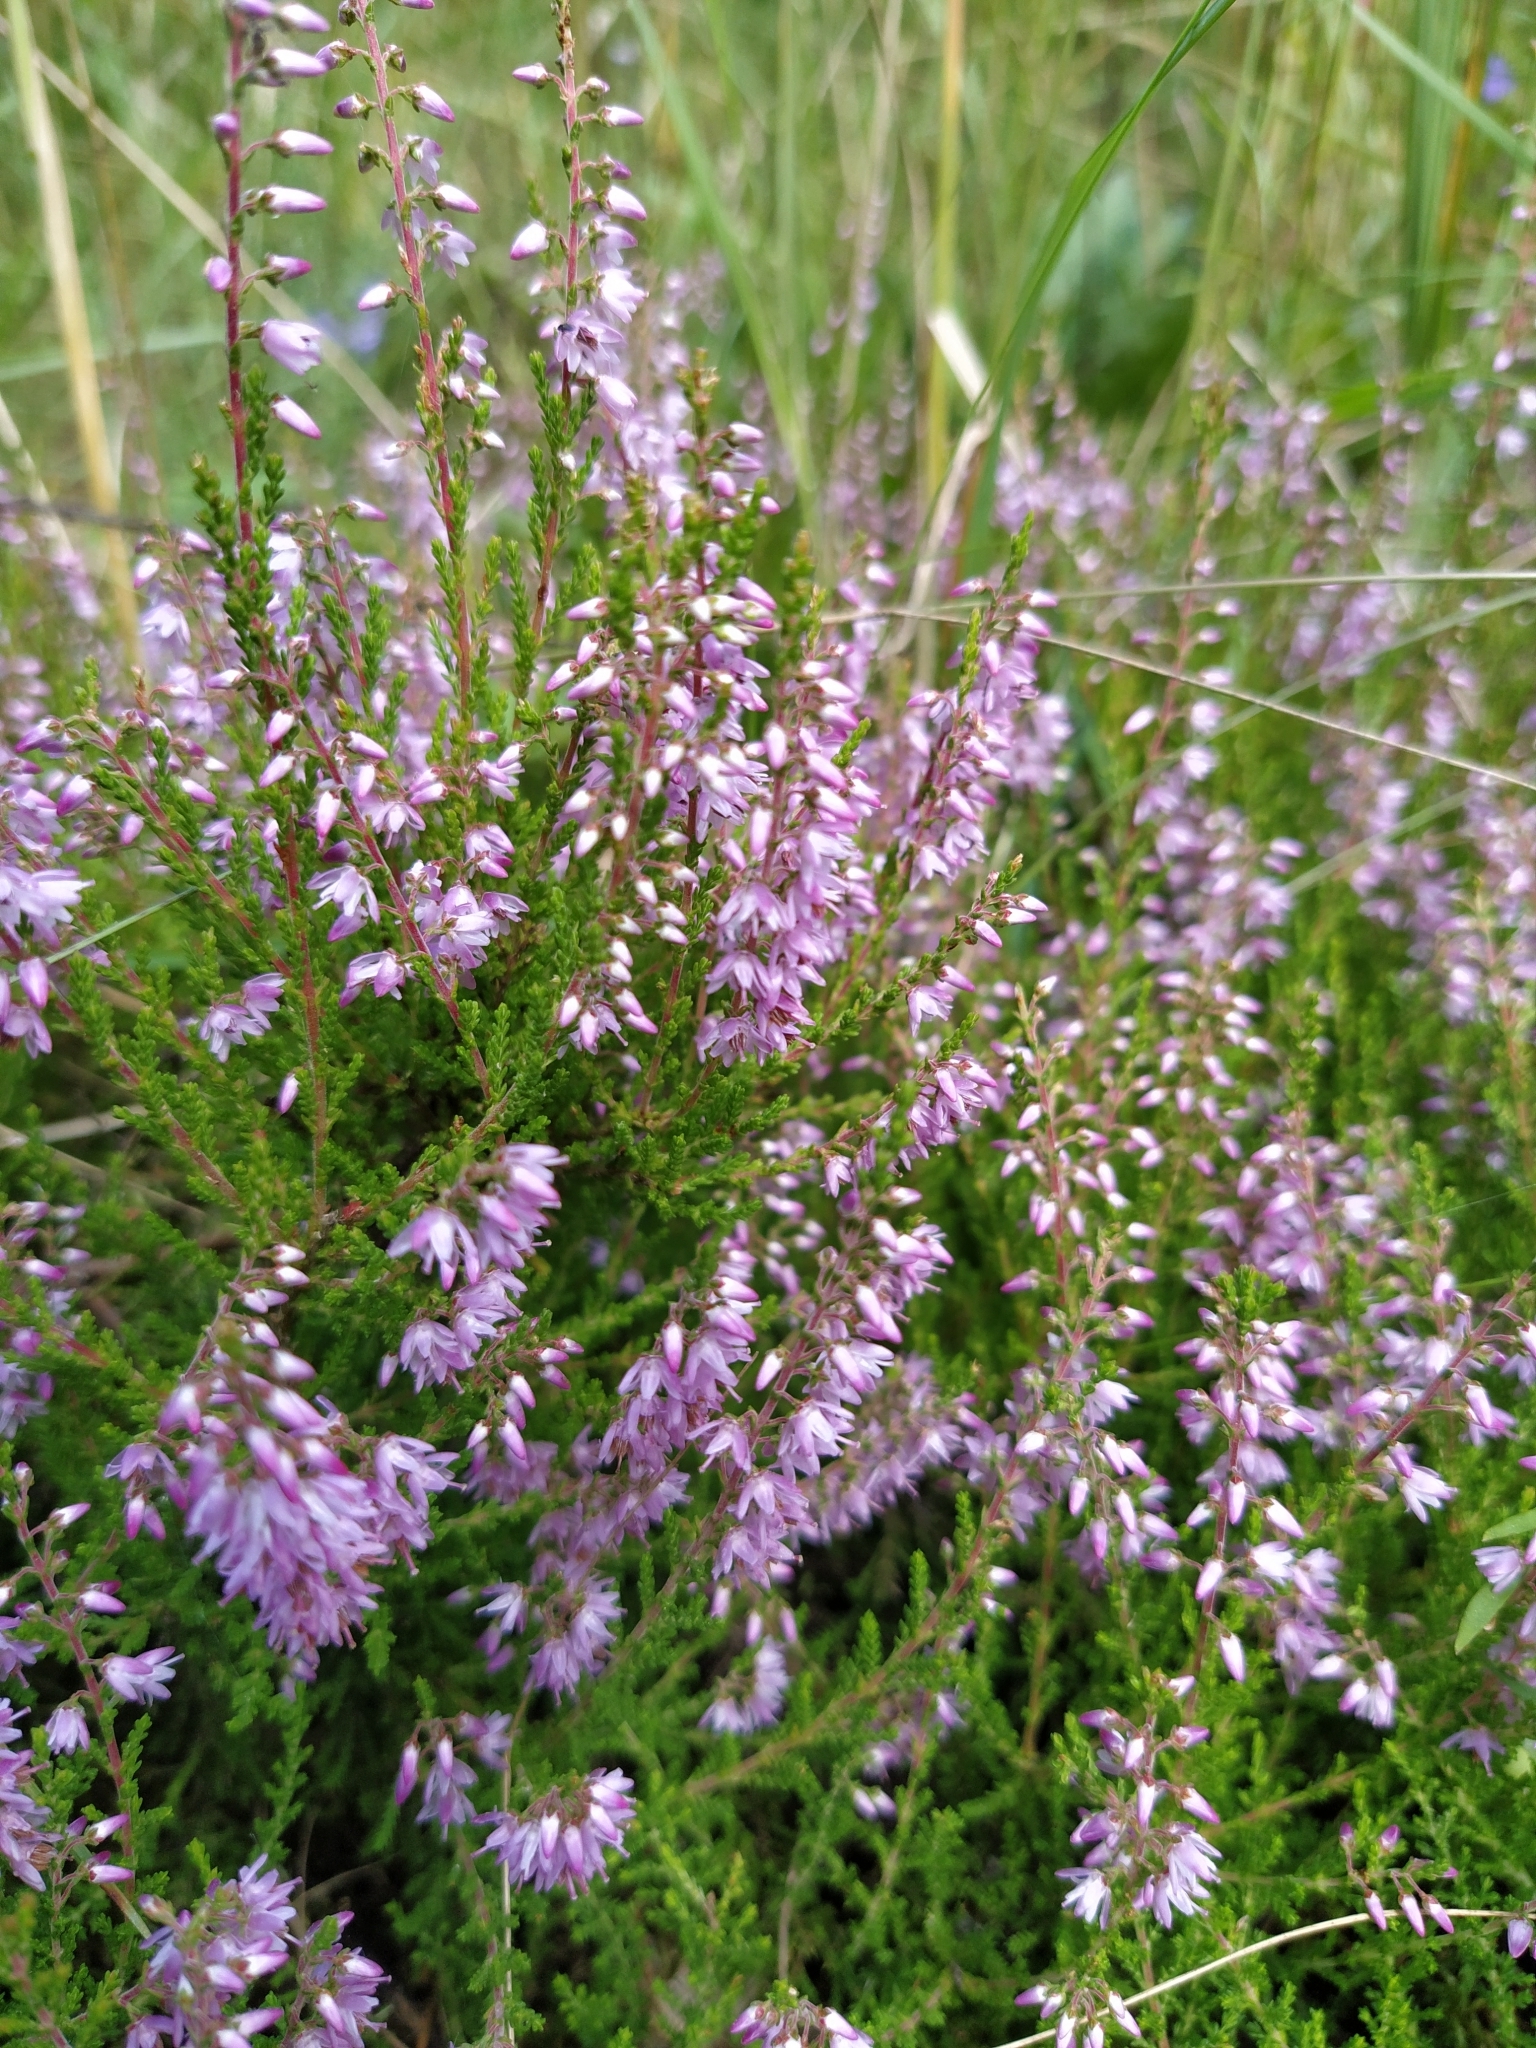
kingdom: Plantae
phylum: Tracheophyta
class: Magnoliopsida
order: Ericales
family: Ericaceae
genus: Calluna
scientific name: Calluna vulgaris
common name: Heather
